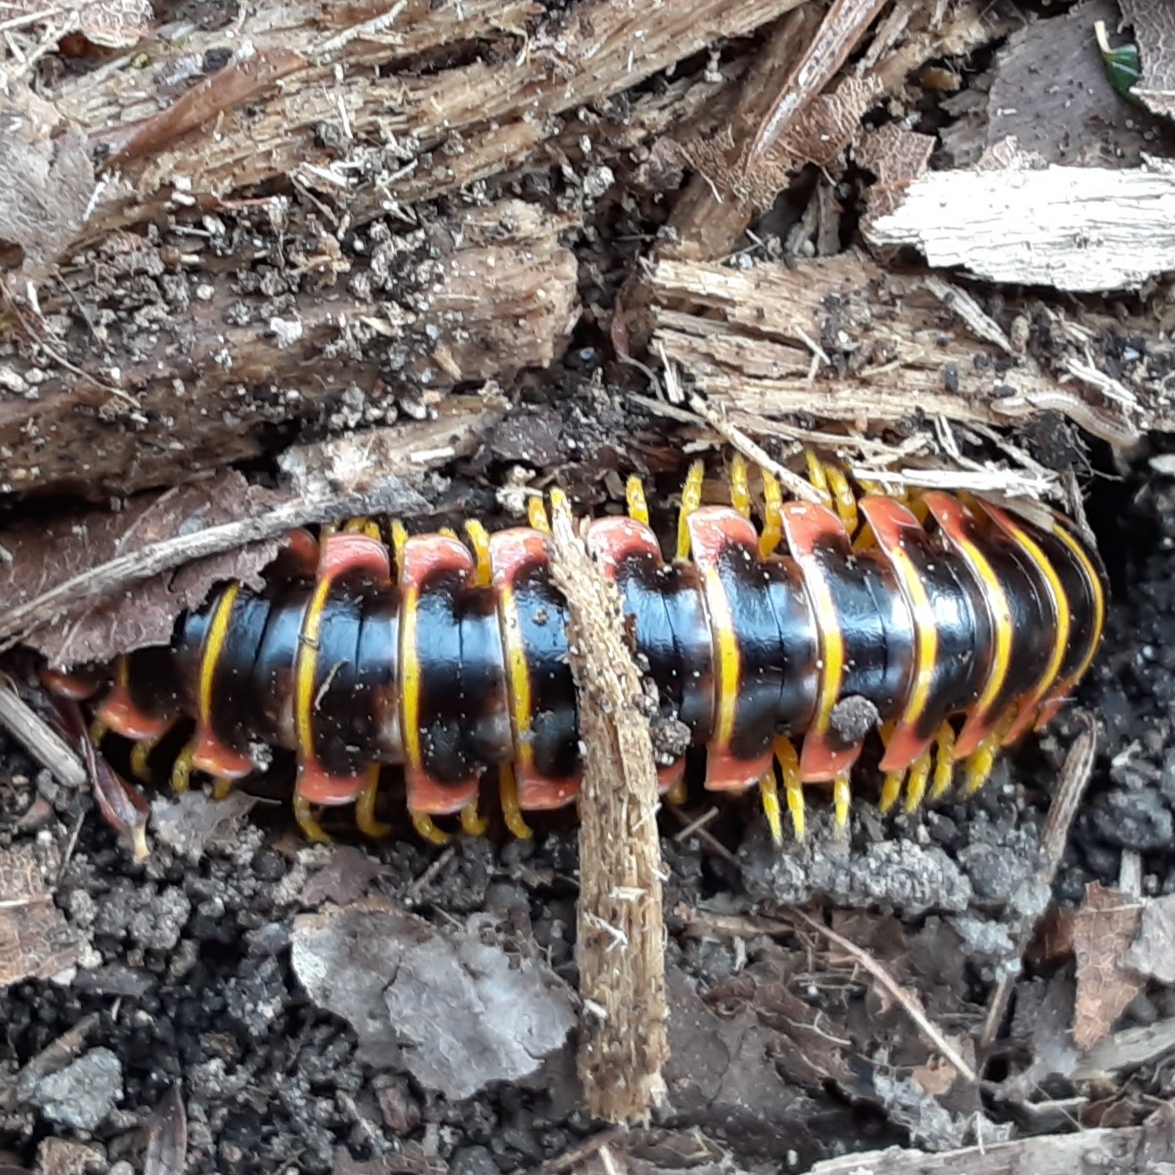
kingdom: Animalia
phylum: Arthropoda
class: Diplopoda
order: Polydesmida
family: Xystodesmidae
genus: Apheloria
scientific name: Apheloria virginiensis
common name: Black-and-gold flat millipede
